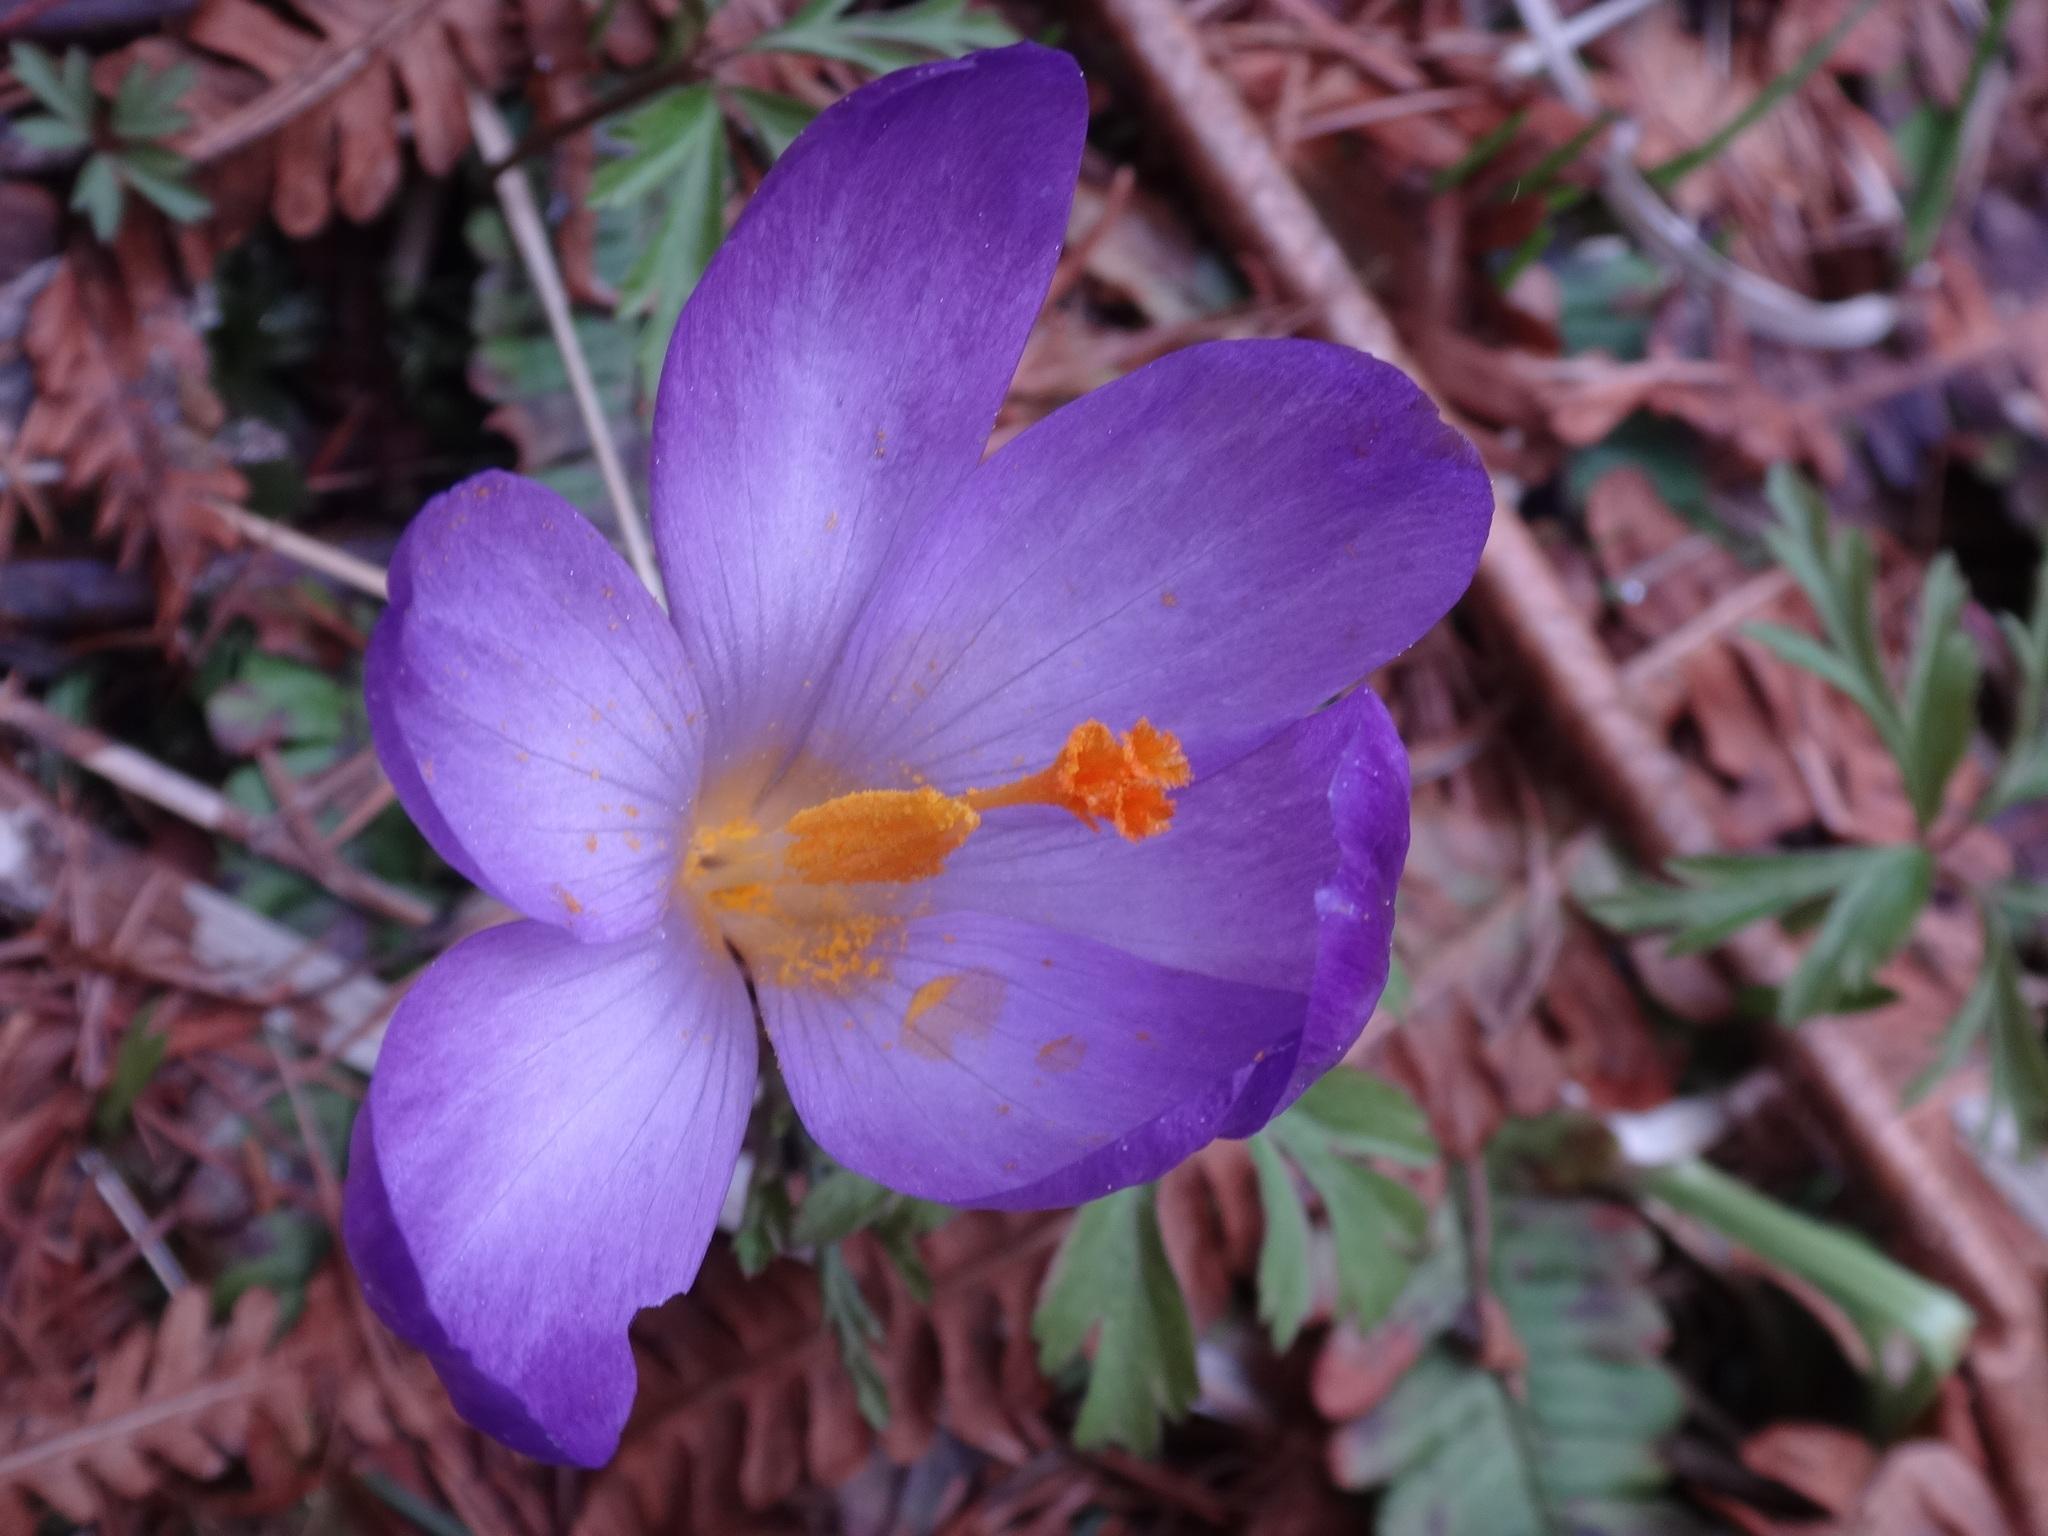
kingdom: Plantae
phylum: Tracheophyta
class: Liliopsida
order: Asparagales
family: Iridaceae
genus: Crocus
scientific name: Crocus heuffelianus
